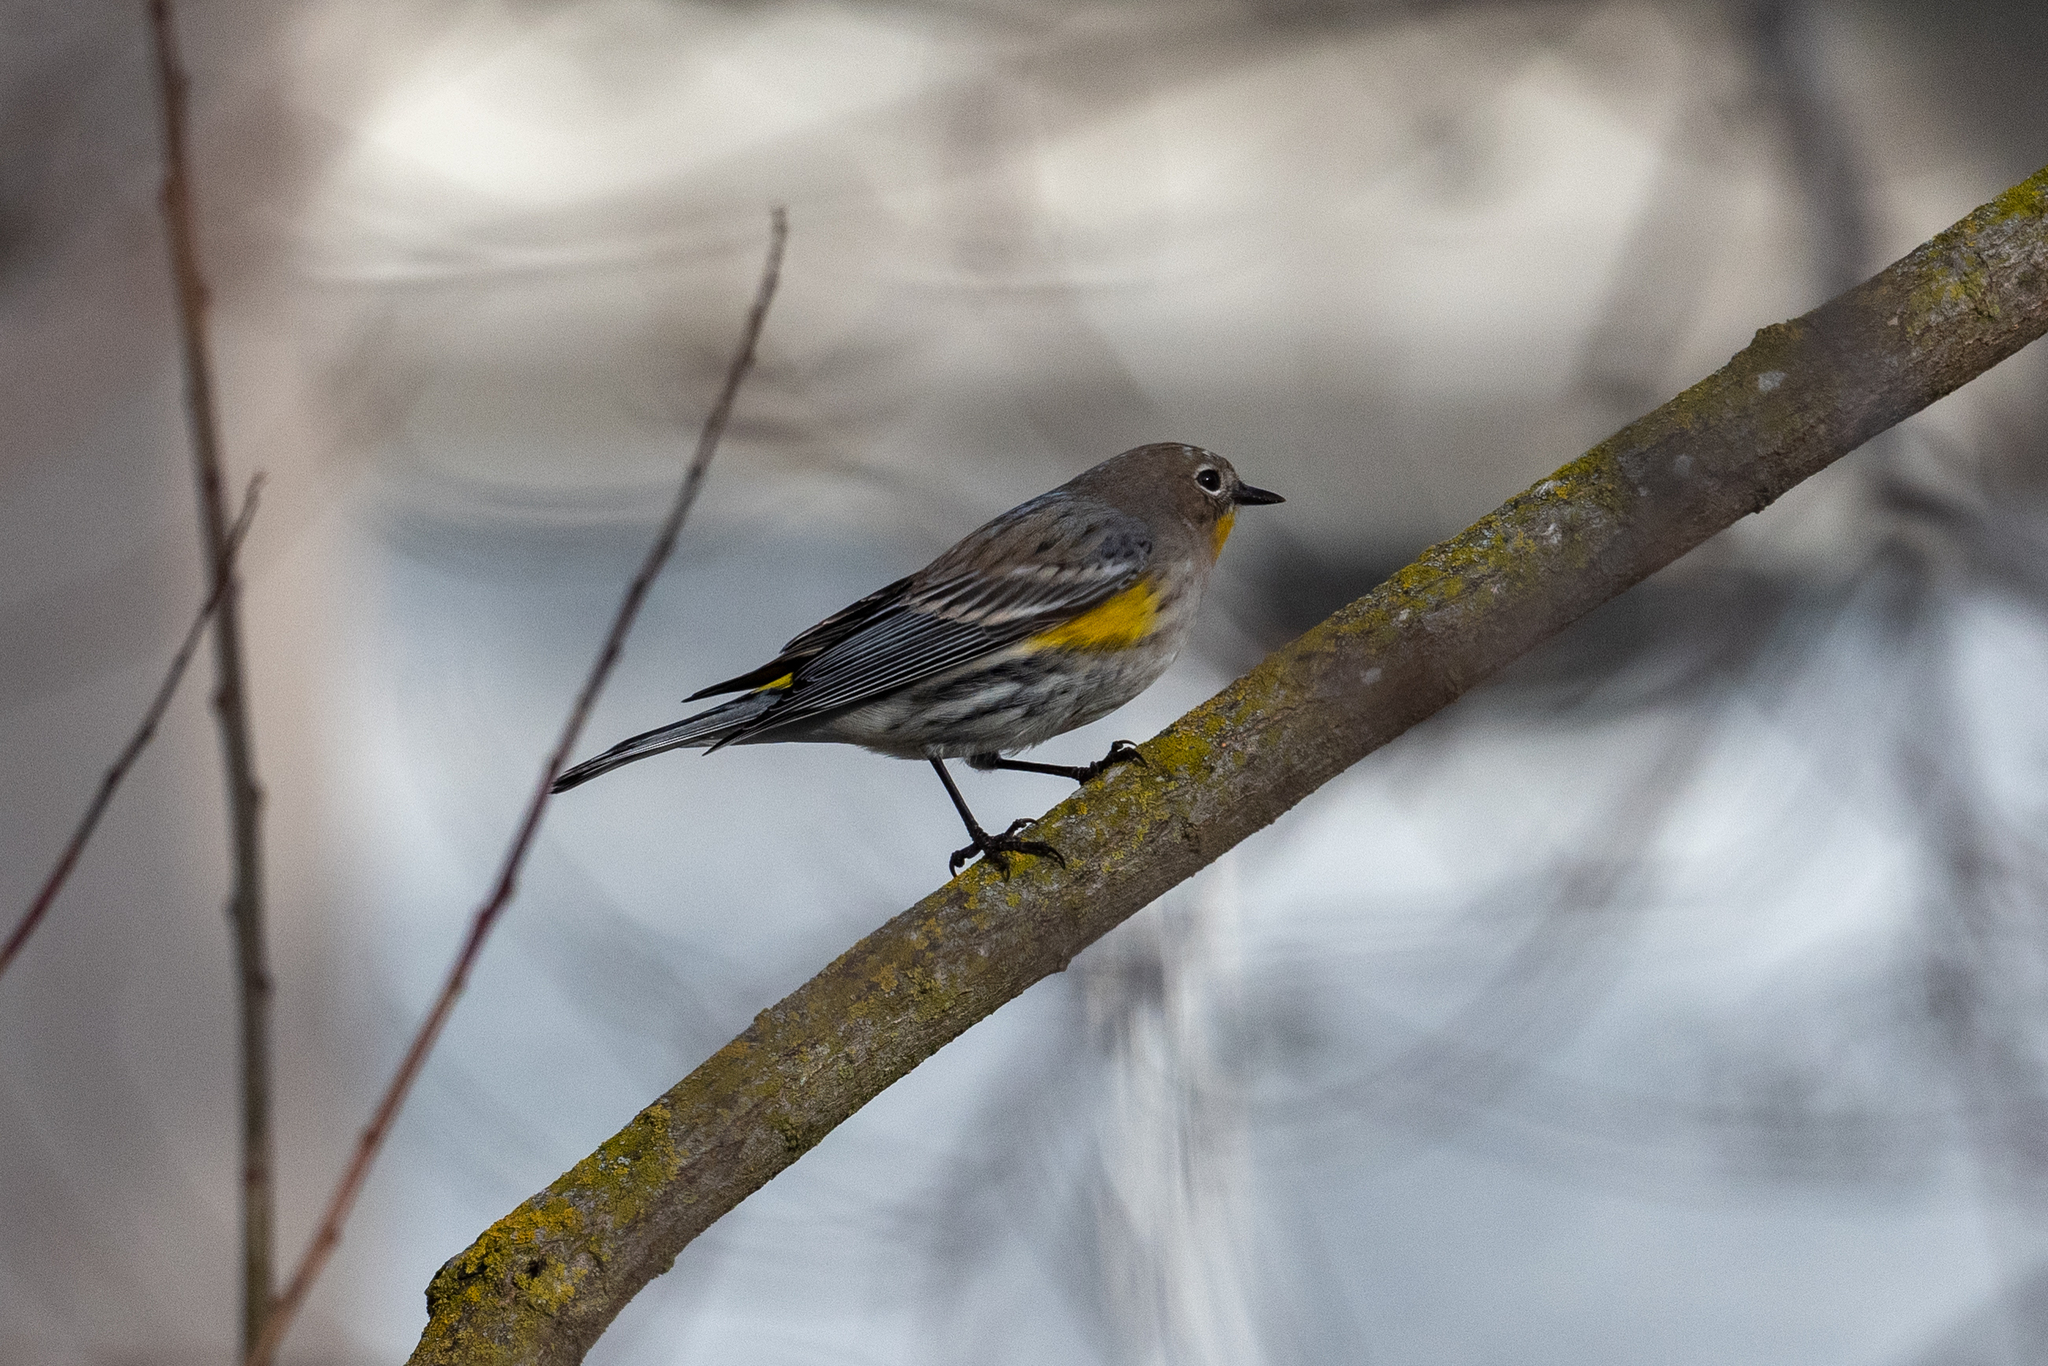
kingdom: Animalia
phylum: Chordata
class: Aves
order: Passeriformes
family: Parulidae
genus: Setophaga
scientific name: Setophaga coronata
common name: Myrtle warbler
